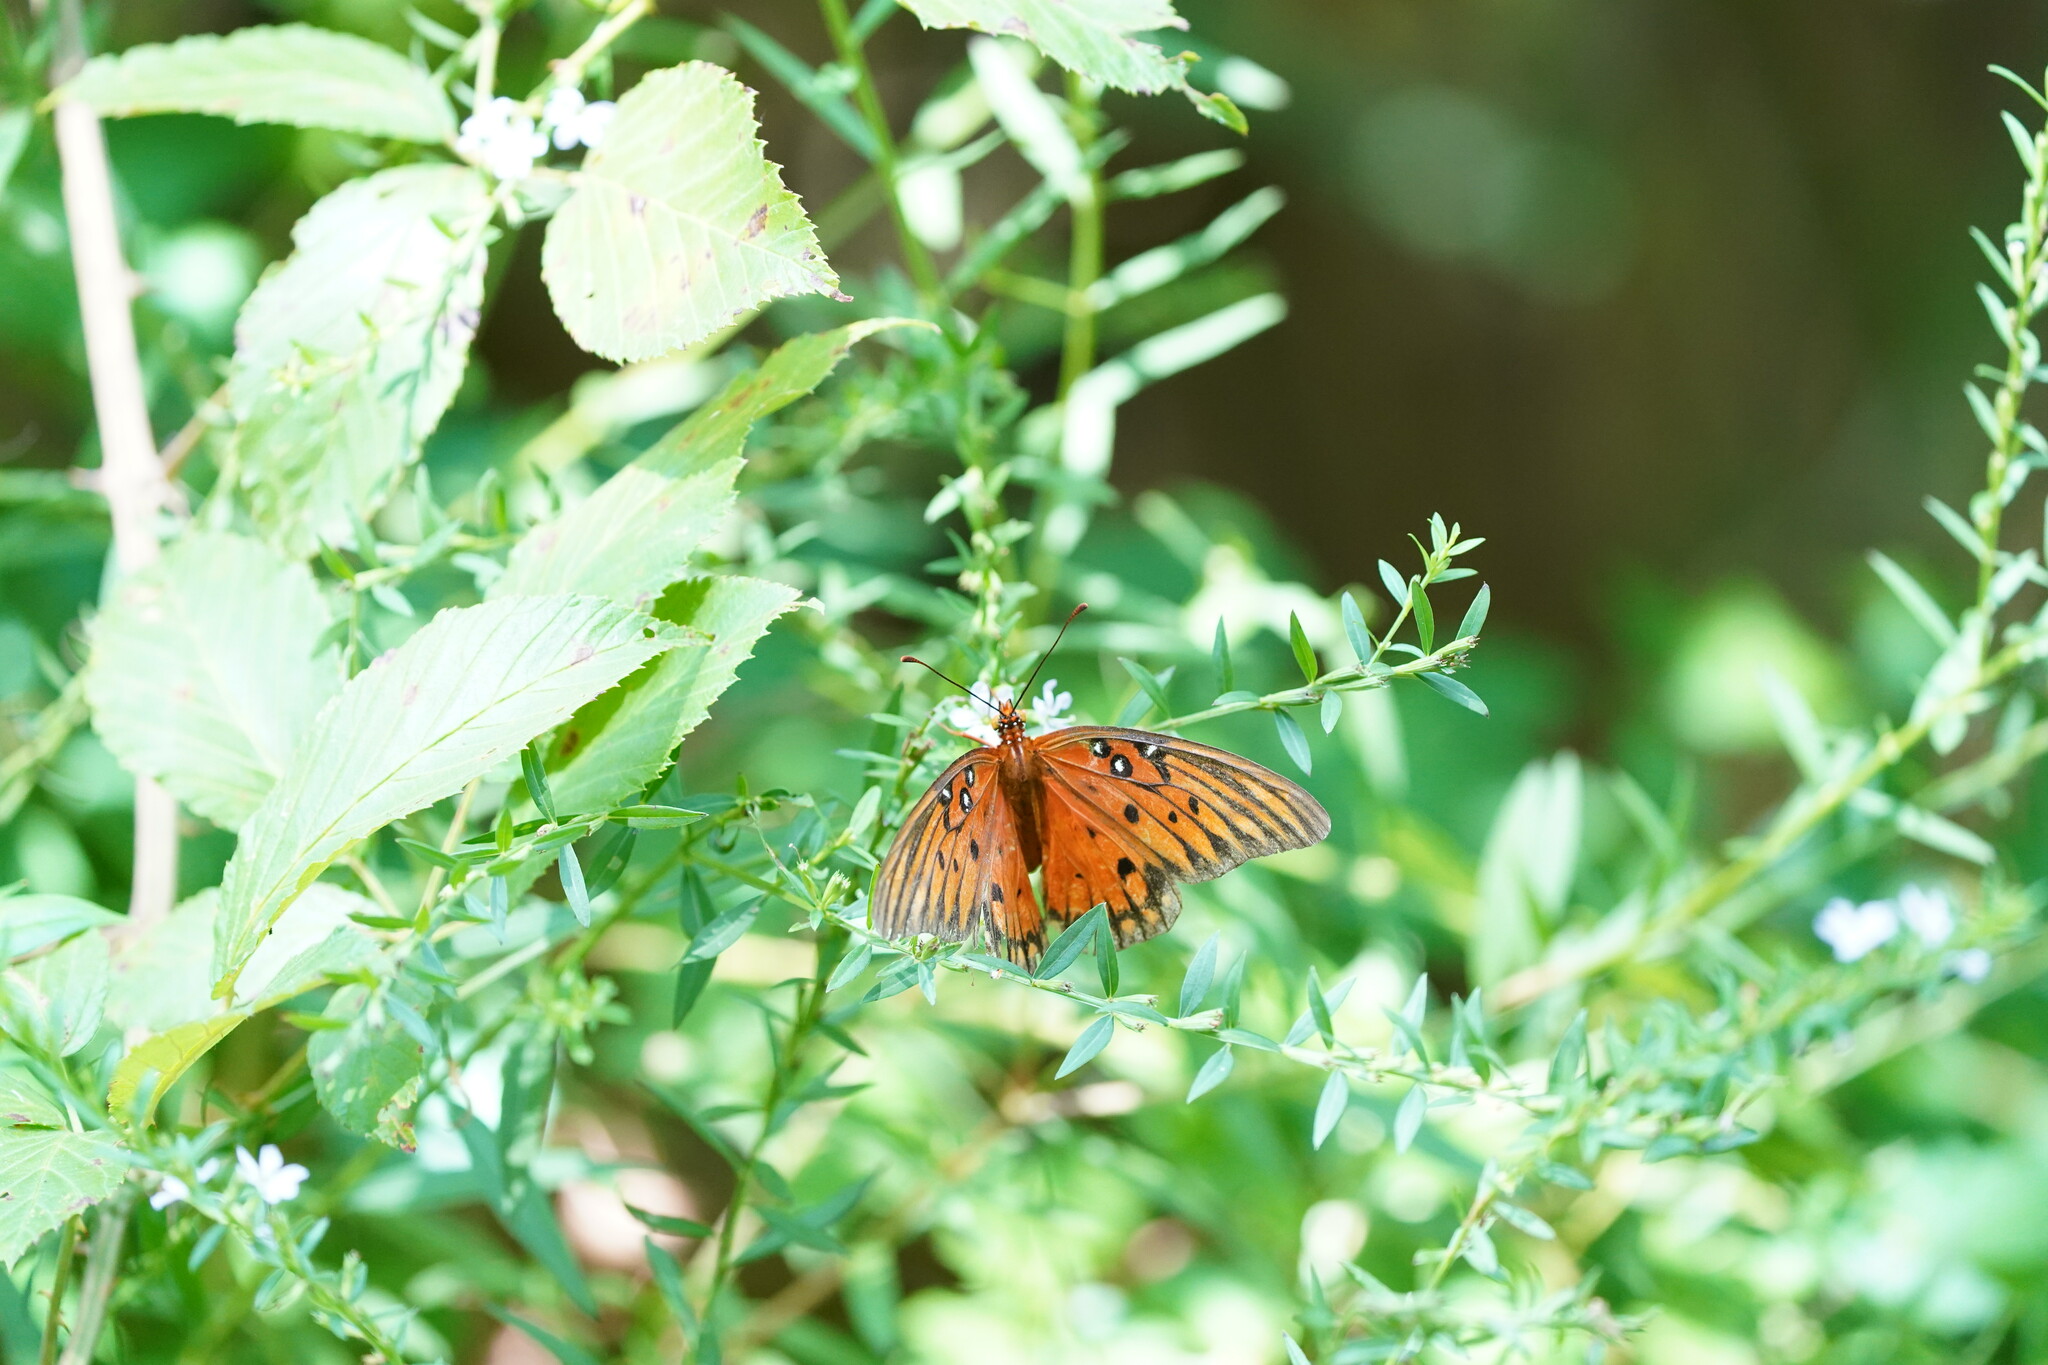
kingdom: Animalia
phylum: Arthropoda
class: Insecta
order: Lepidoptera
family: Nymphalidae
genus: Dione
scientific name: Dione vanillae
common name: Gulf fritillary
